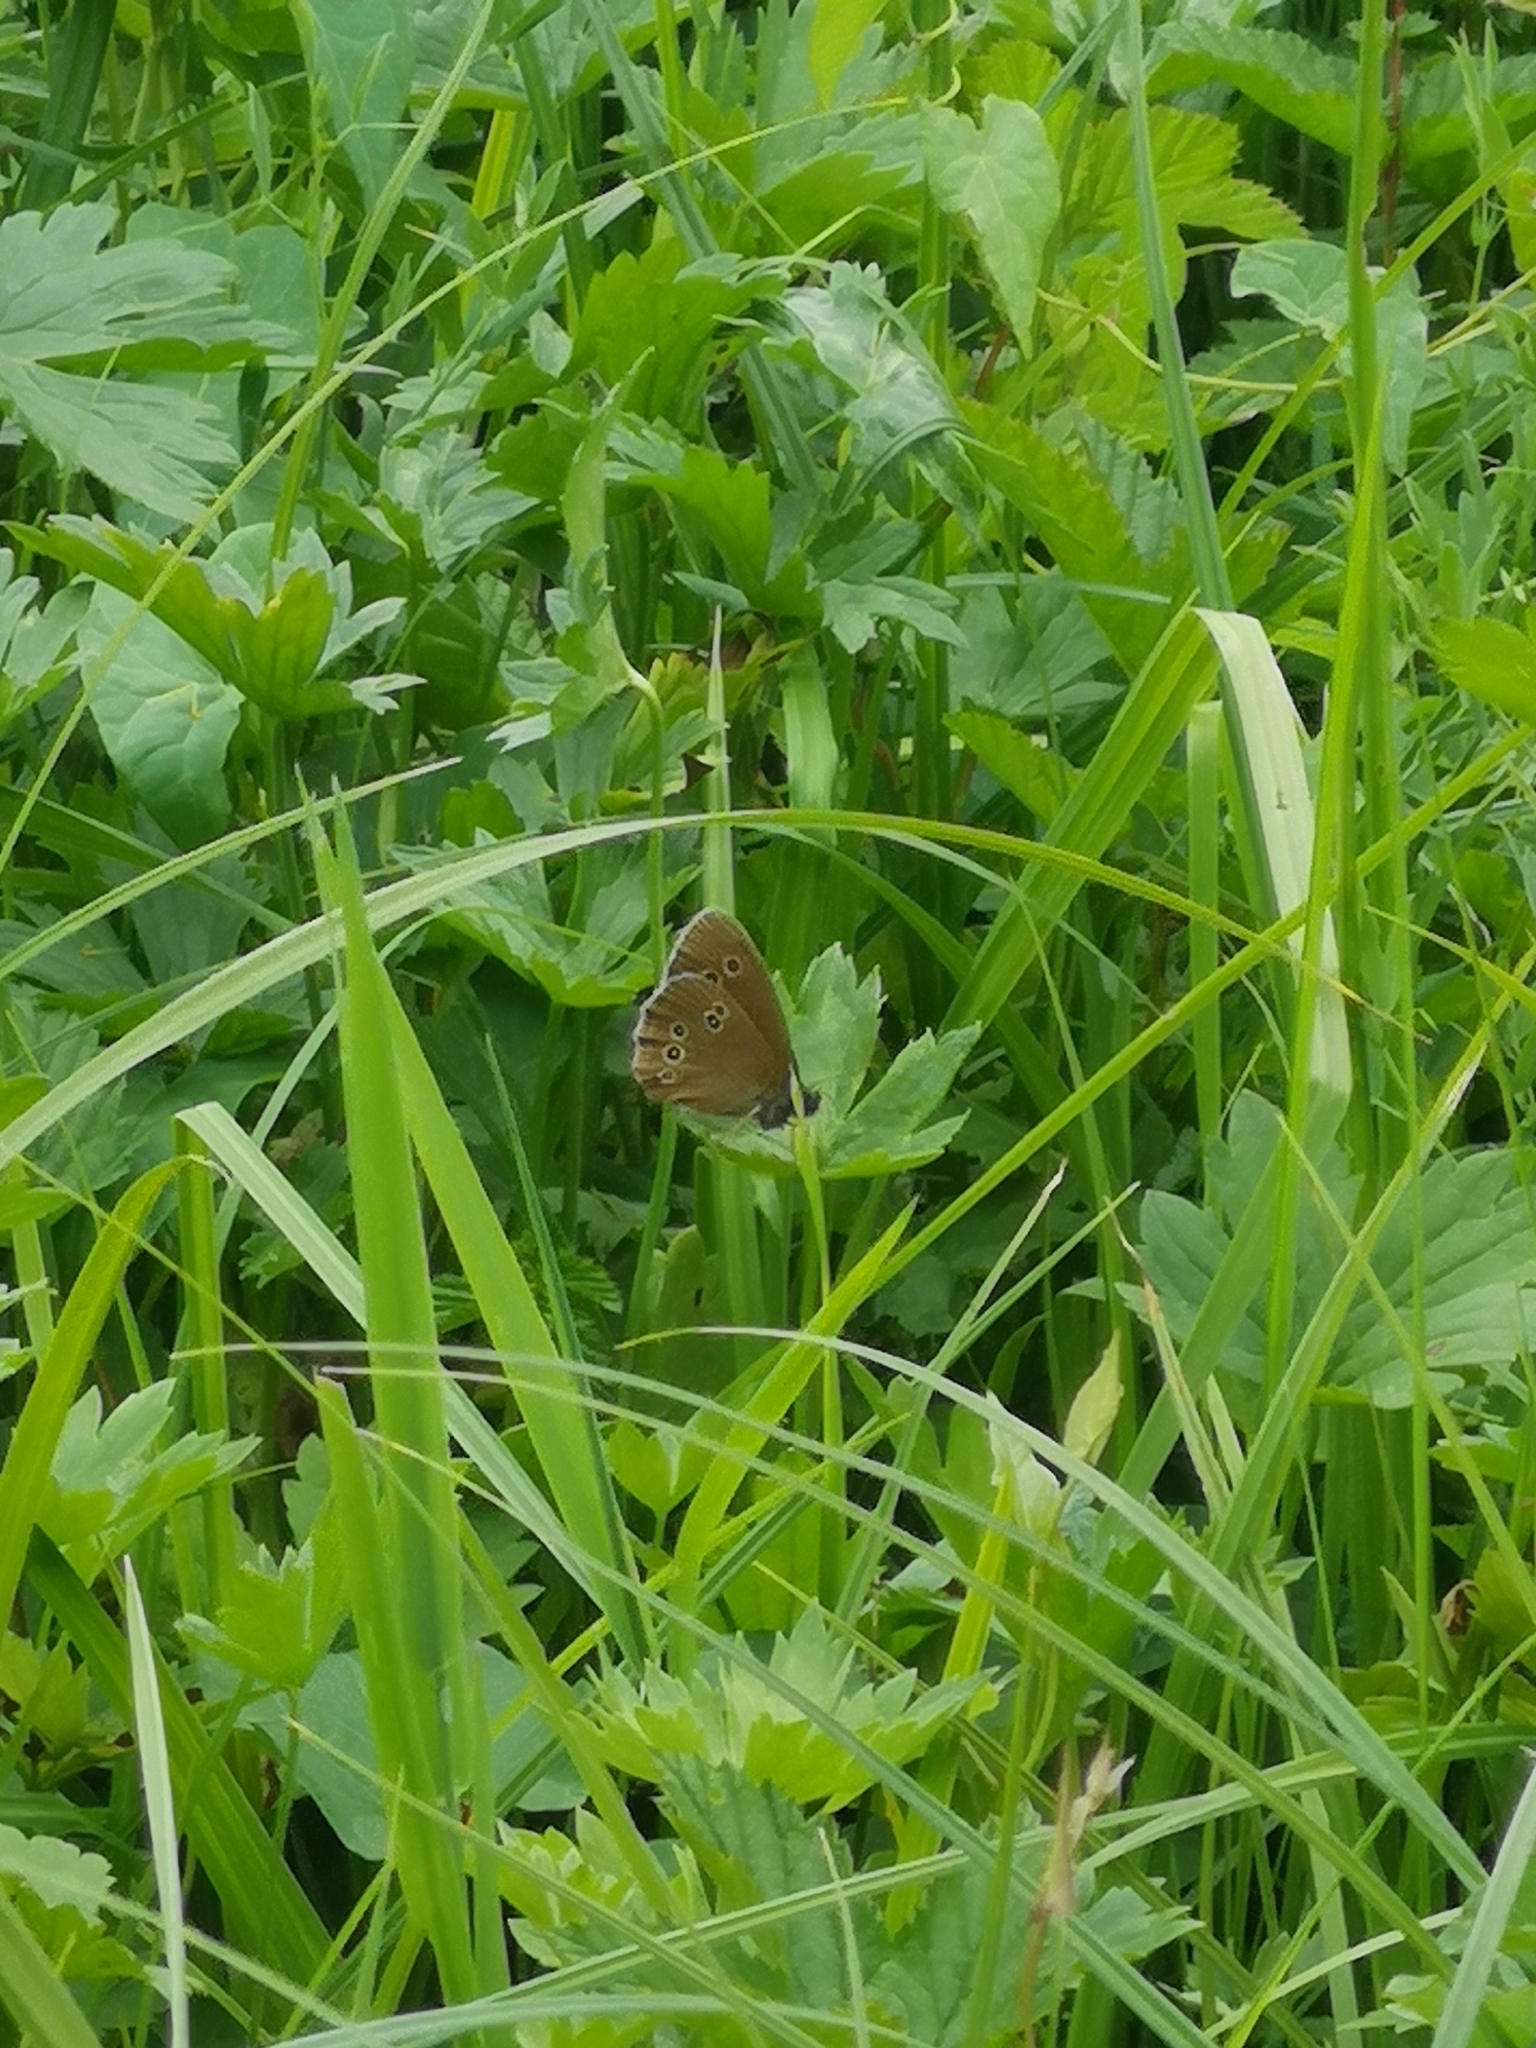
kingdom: Animalia
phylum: Arthropoda
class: Insecta
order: Lepidoptera
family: Nymphalidae
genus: Aphantopus
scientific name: Aphantopus hyperantus
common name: Ringlet
